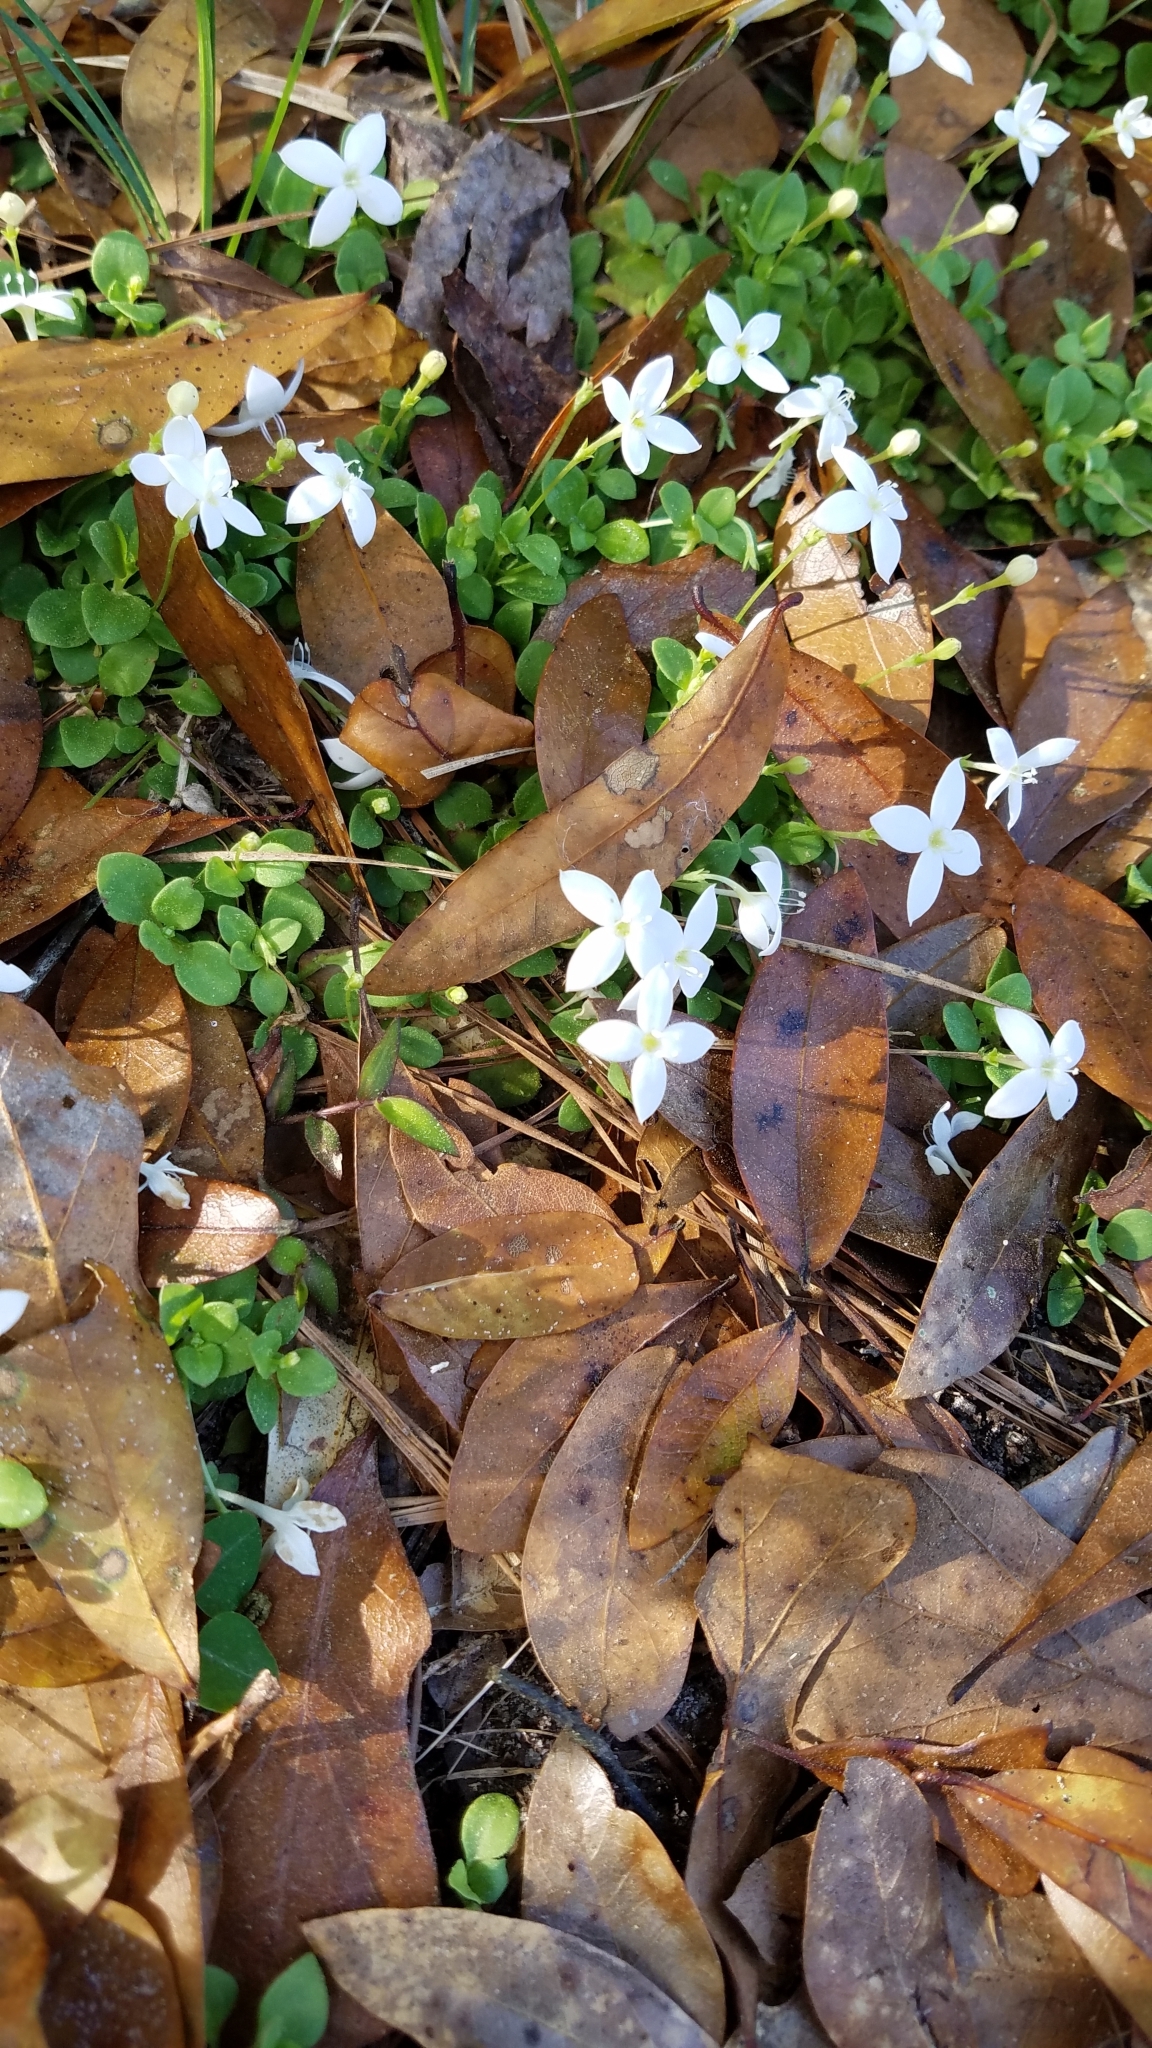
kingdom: Plantae
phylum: Tracheophyta
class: Magnoliopsida
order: Gentianales
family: Rubiaceae
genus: Houstonia
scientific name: Houstonia procumbens
